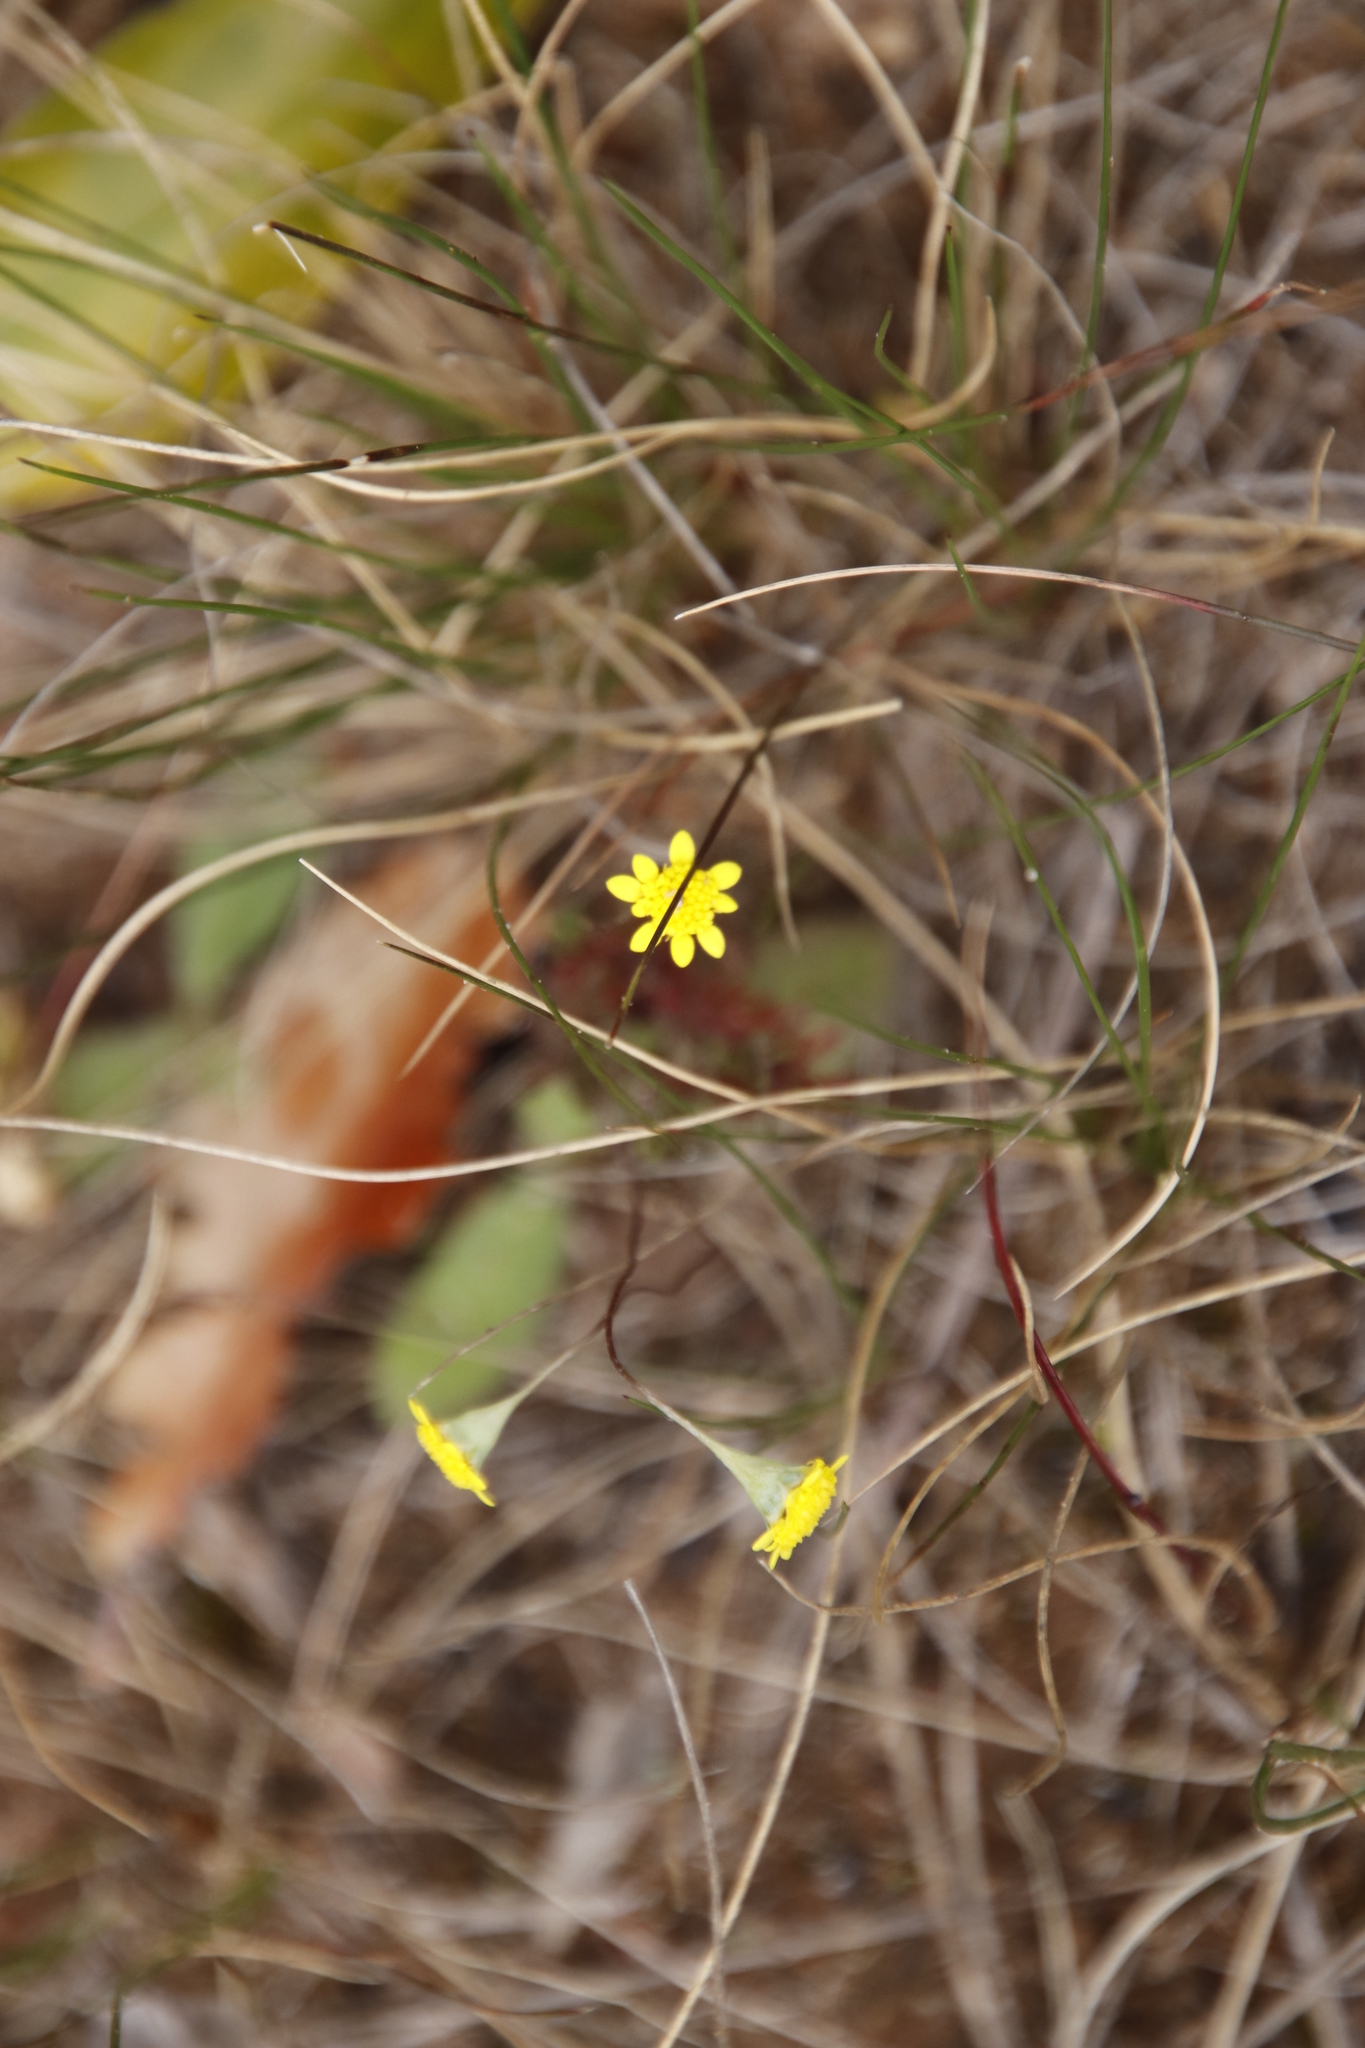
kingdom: Plantae
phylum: Tracheophyta
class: Magnoliopsida
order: Asterales
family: Asteraceae
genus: Cotula
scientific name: Cotula pruinosa
